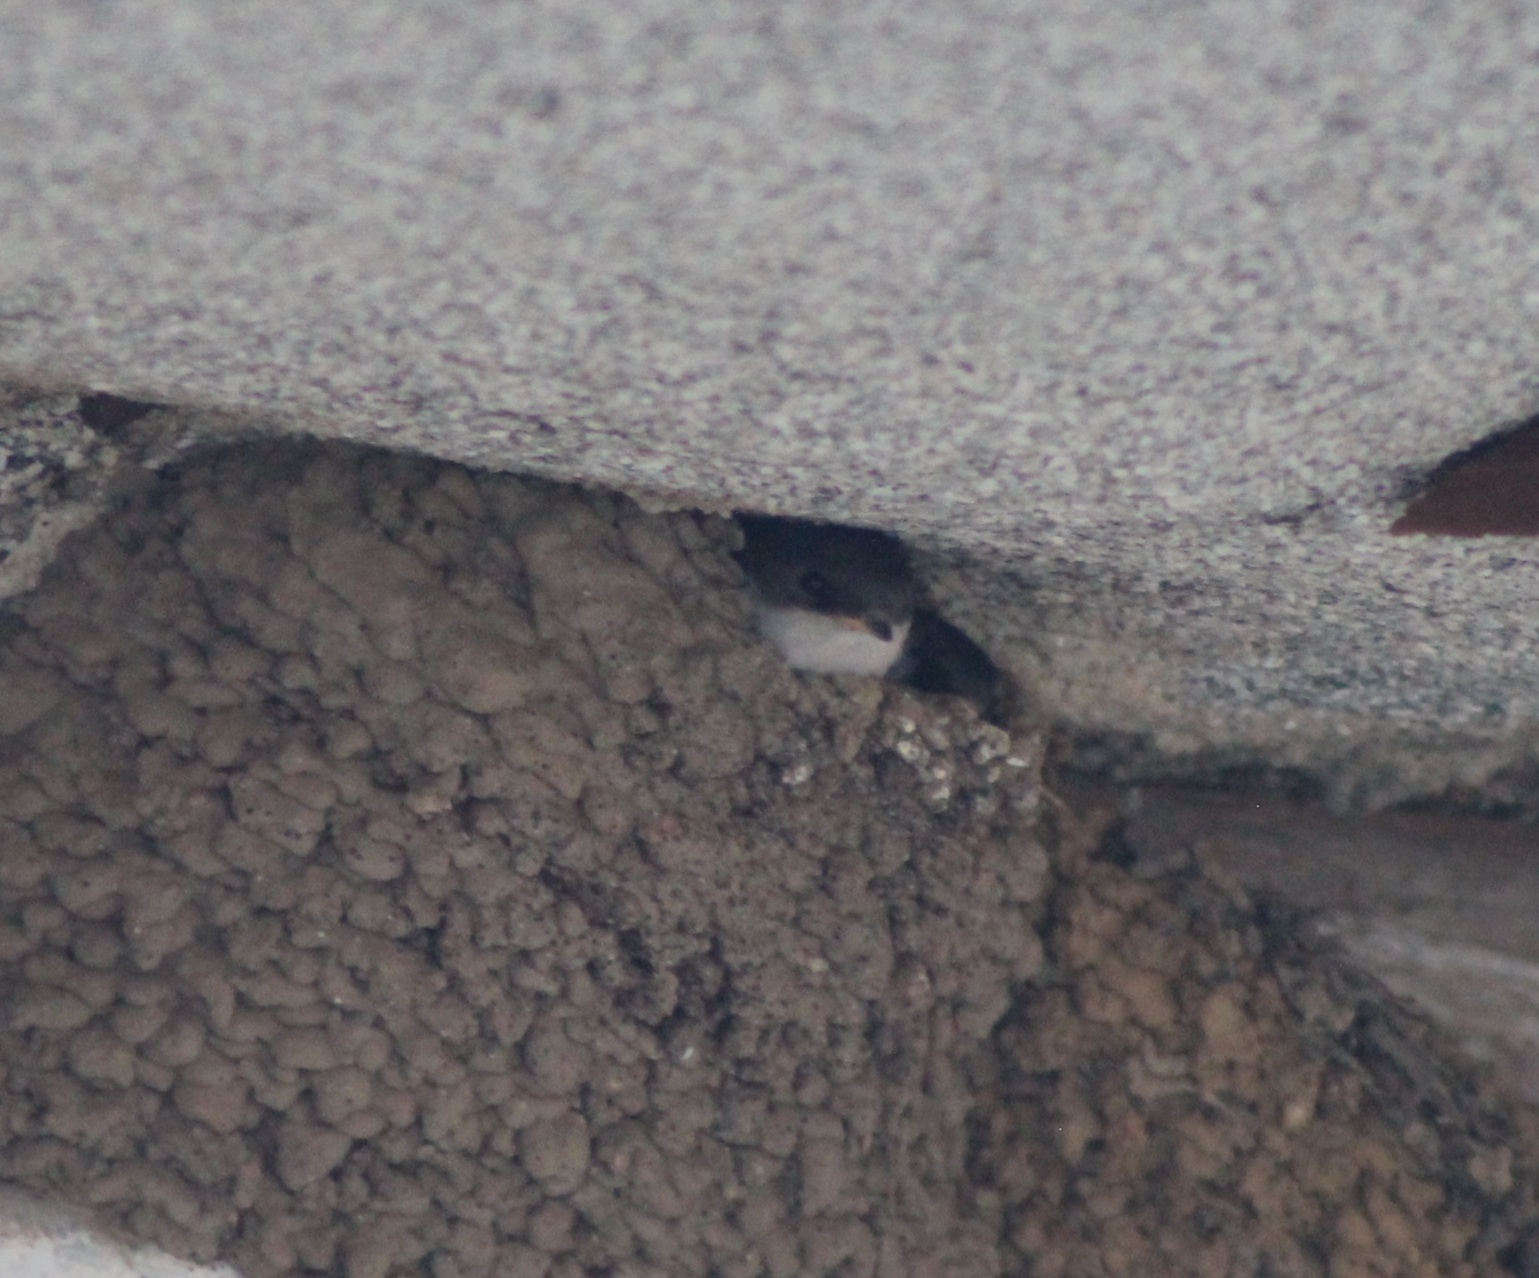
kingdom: Animalia
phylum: Chordata
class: Aves
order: Passeriformes
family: Hirundinidae
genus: Delichon
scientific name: Delichon urbicum
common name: Common house martin
